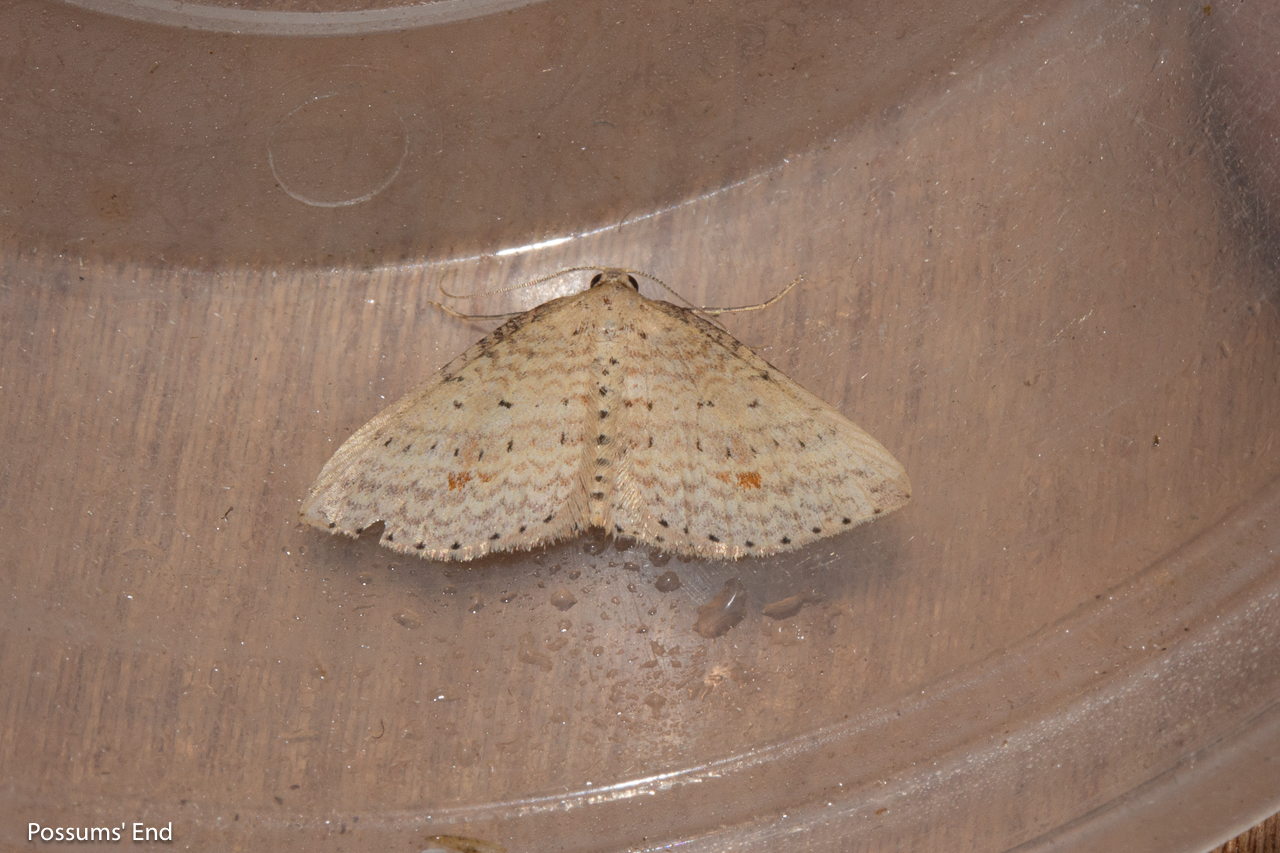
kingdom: Animalia
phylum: Arthropoda
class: Insecta
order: Lepidoptera
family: Geometridae
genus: Epicyme
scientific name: Epicyme rubropunctaria
